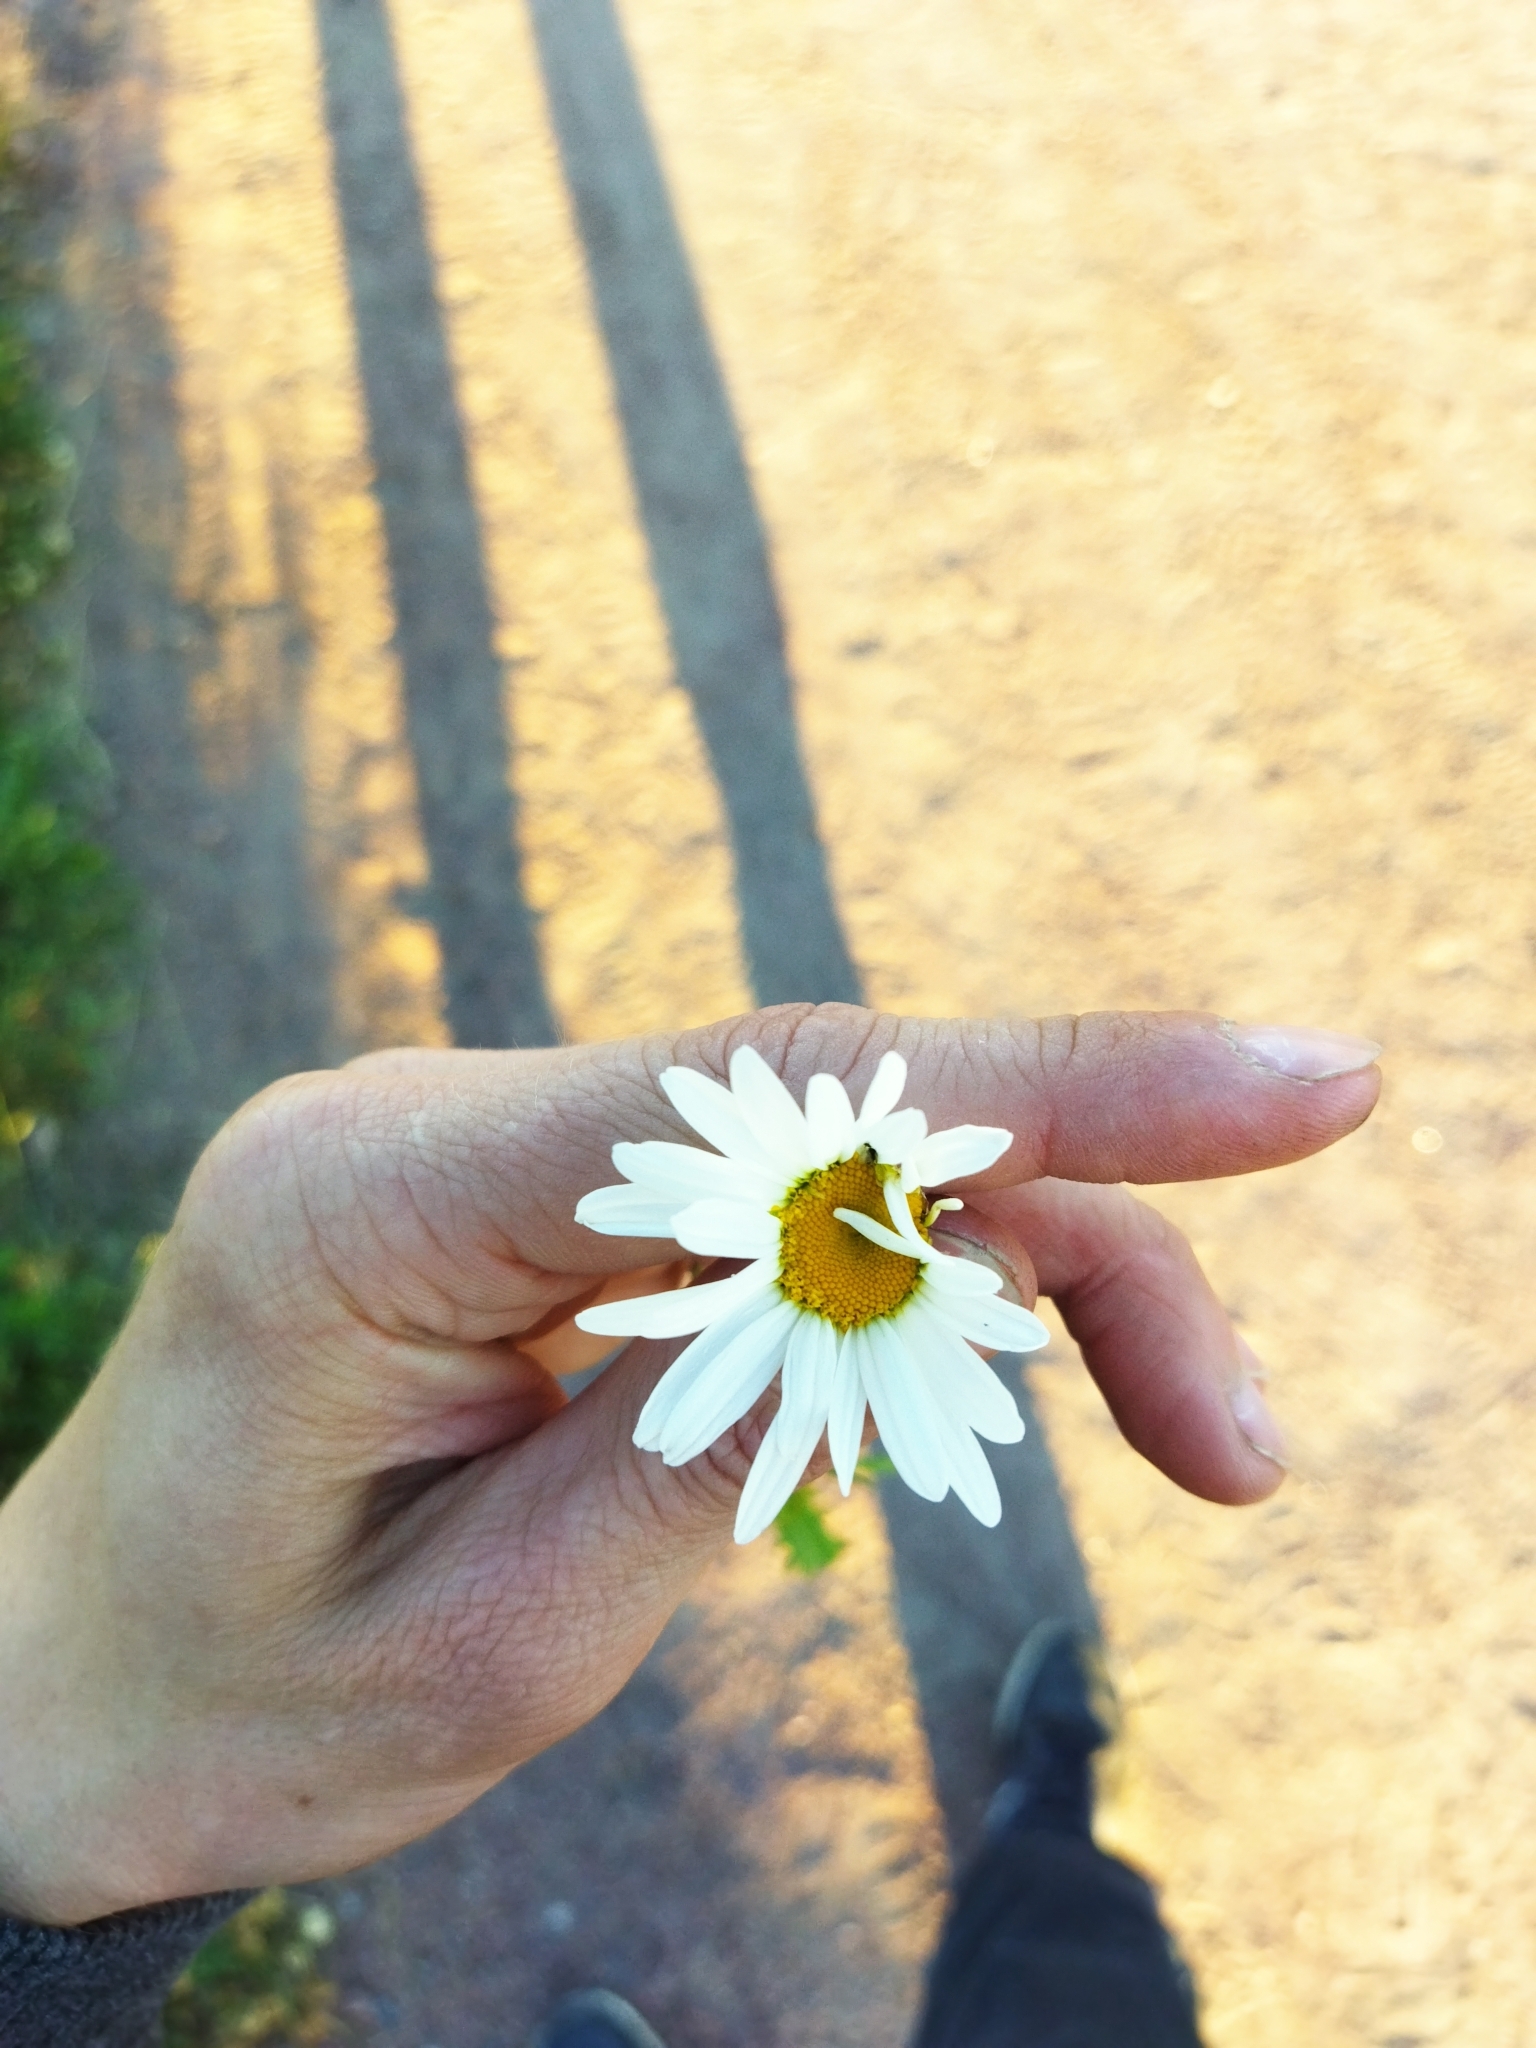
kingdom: Plantae
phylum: Tracheophyta
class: Magnoliopsida
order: Asterales
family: Asteraceae
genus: Leucanthemum
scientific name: Leucanthemum vulgare
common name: Oxeye daisy
